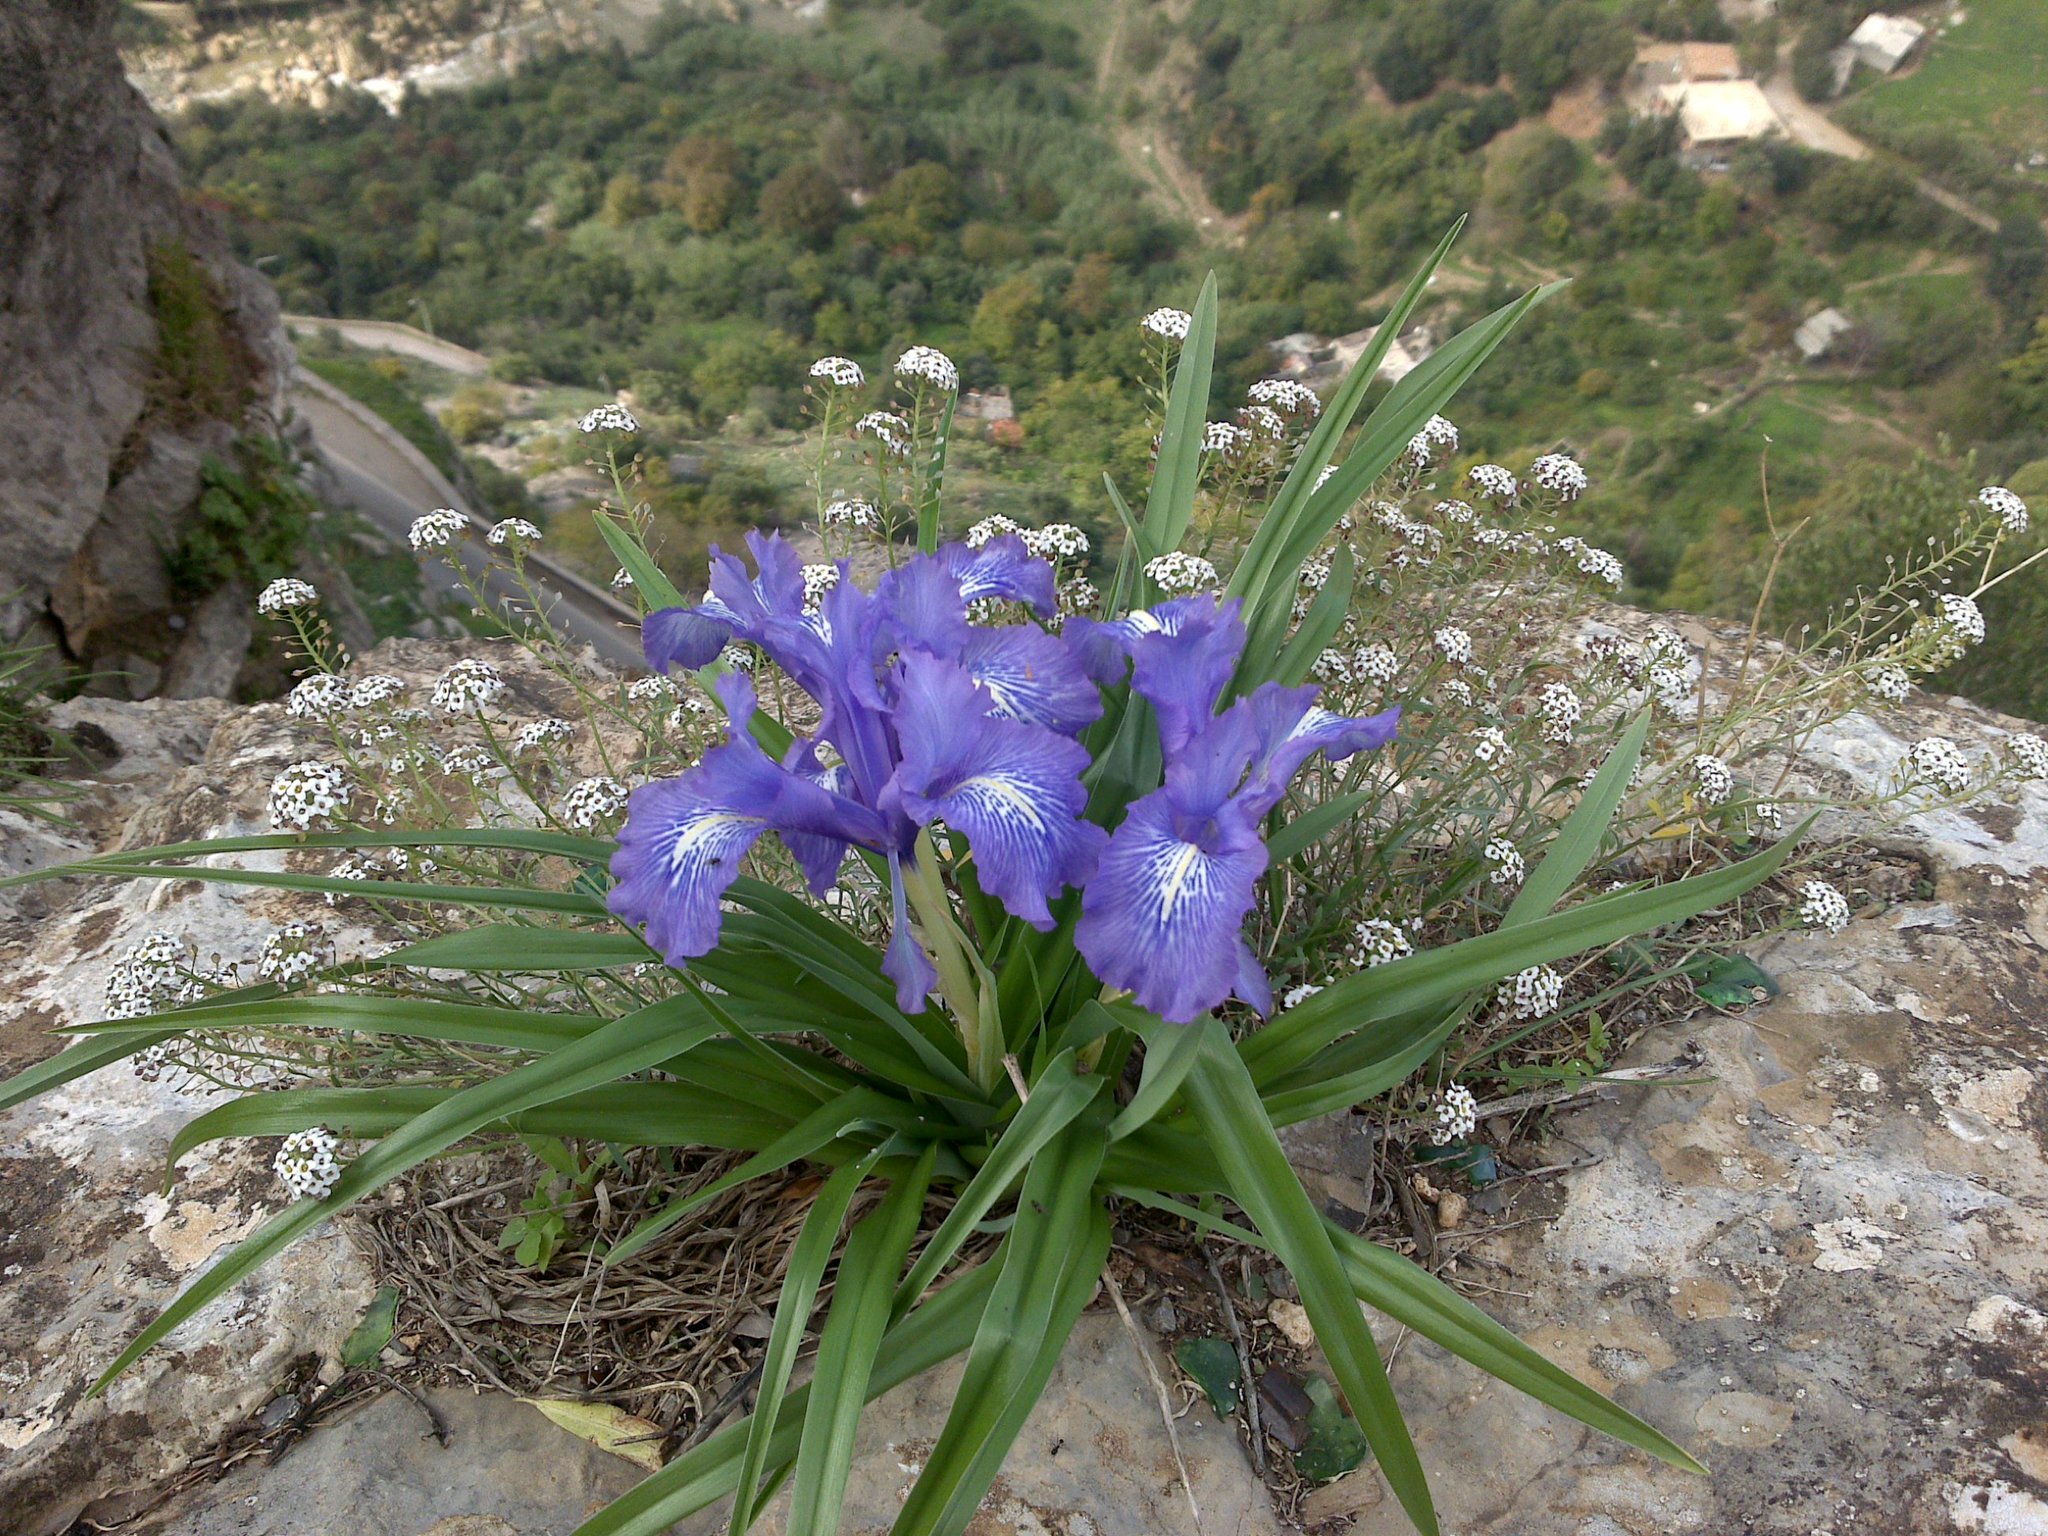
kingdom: Plantae
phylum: Tracheophyta
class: Liliopsida
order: Asparagales
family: Iridaceae
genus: Iris
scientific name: Iris planifolia
